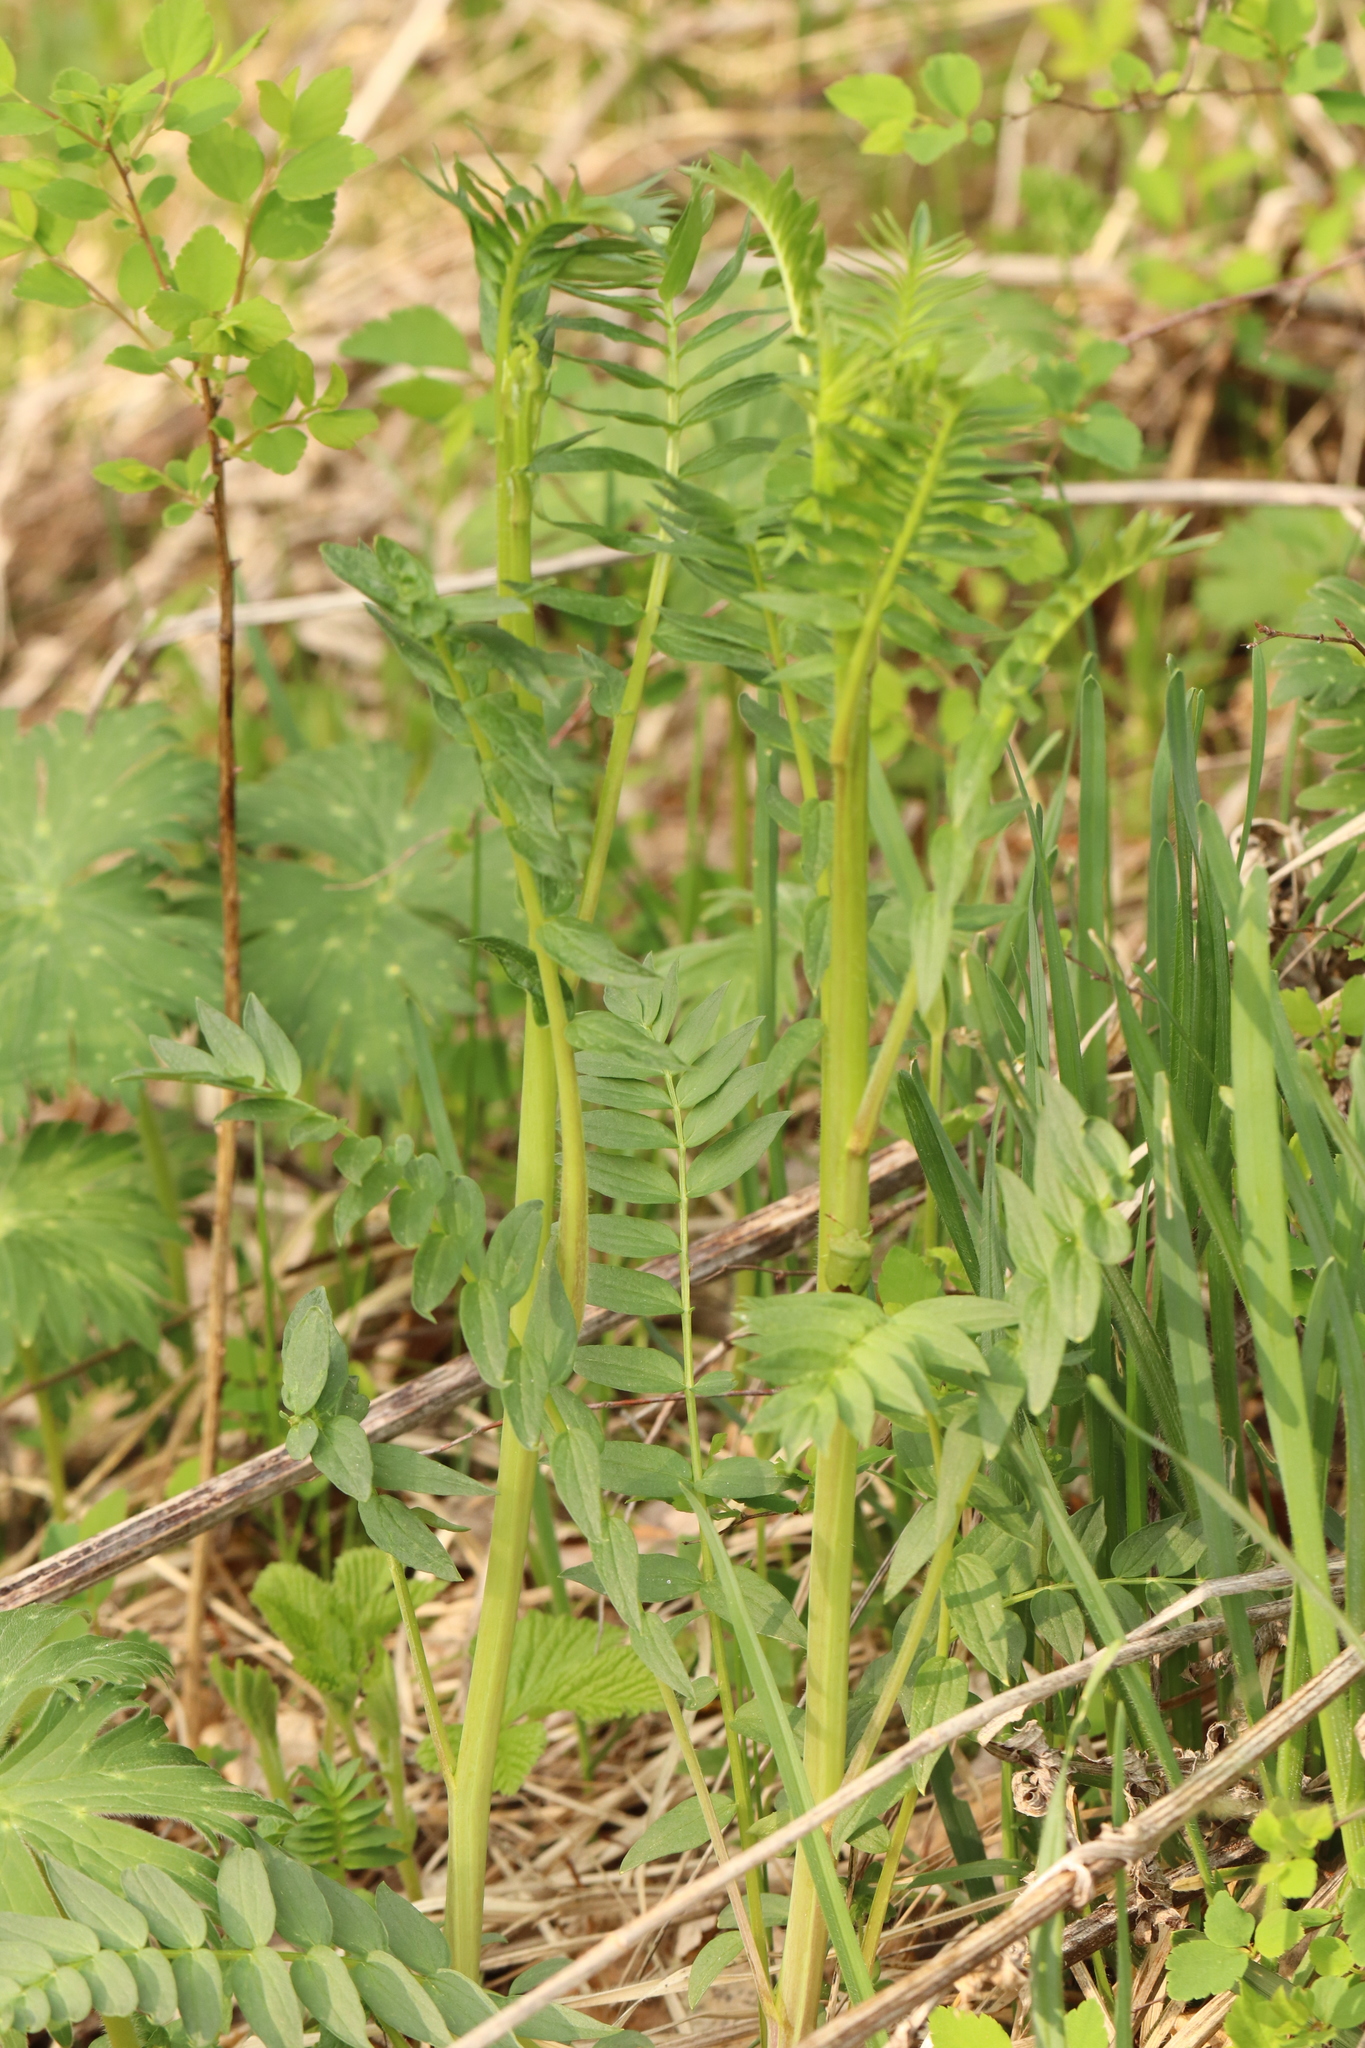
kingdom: Plantae
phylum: Tracheophyta
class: Magnoliopsida
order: Ericales
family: Polemoniaceae
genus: Polemonium
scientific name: Polemonium caeruleum
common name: Jacob's-ladder
